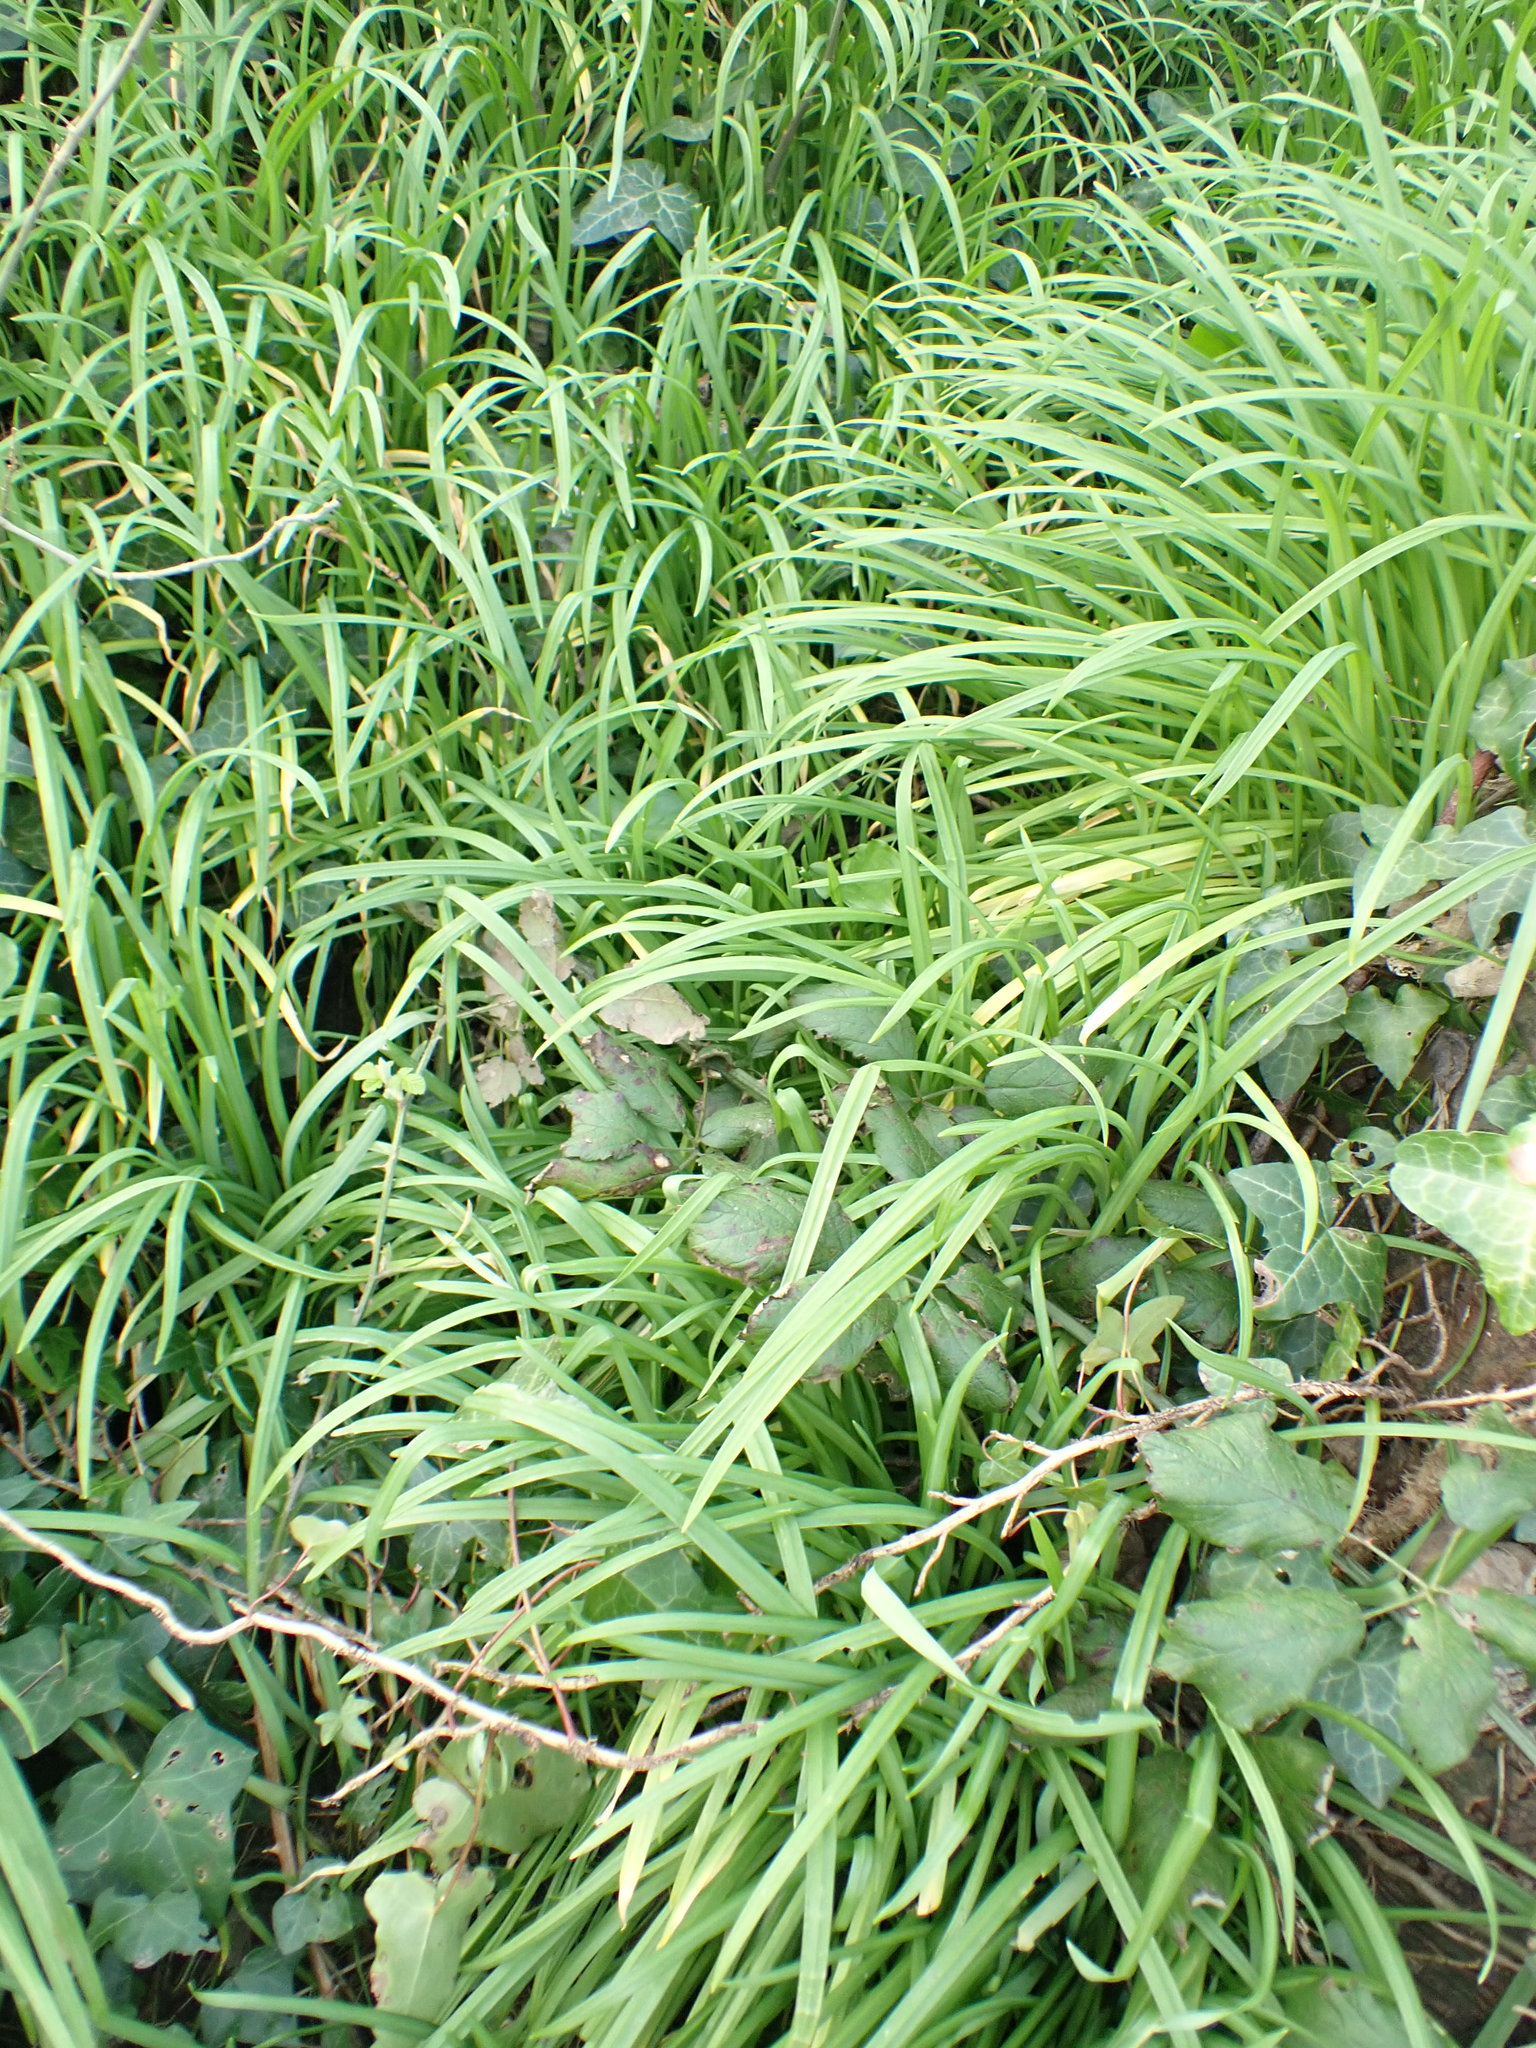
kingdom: Plantae
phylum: Tracheophyta
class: Liliopsida
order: Asparagales
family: Amaryllidaceae
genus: Allium
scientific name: Allium triquetrum
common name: Three-cornered garlic
